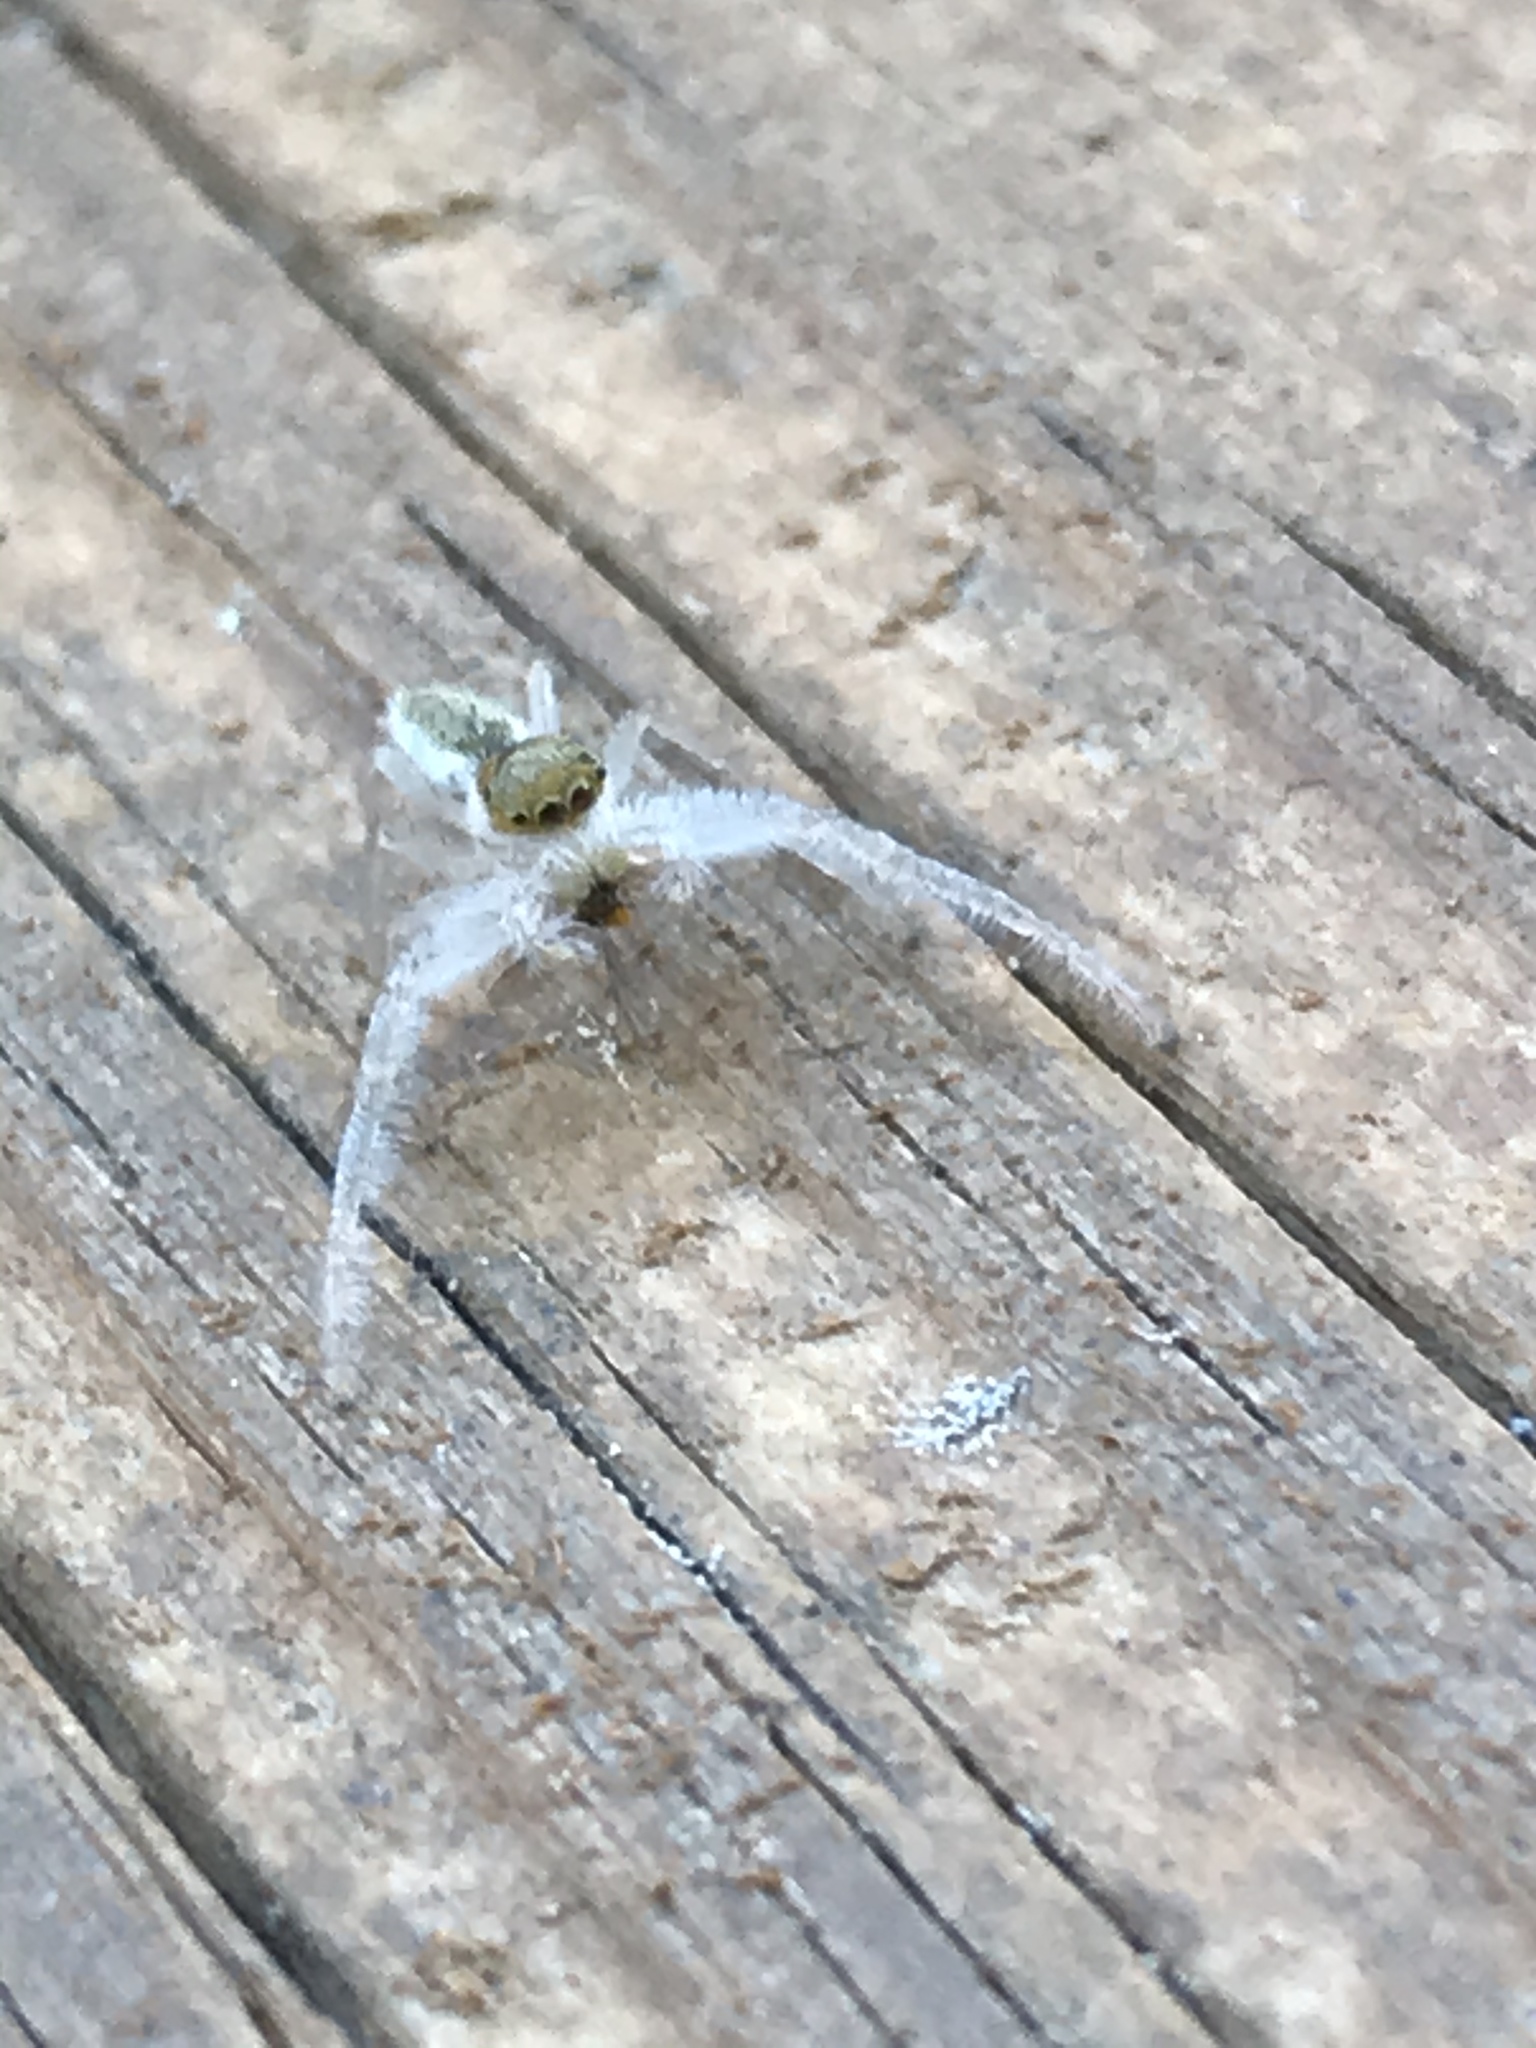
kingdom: Animalia
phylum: Arthropoda
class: Arachnida
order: Araneae
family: Salticidae
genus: Hentzia
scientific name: Hentzia mitrata
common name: White-jawed jumping spider
